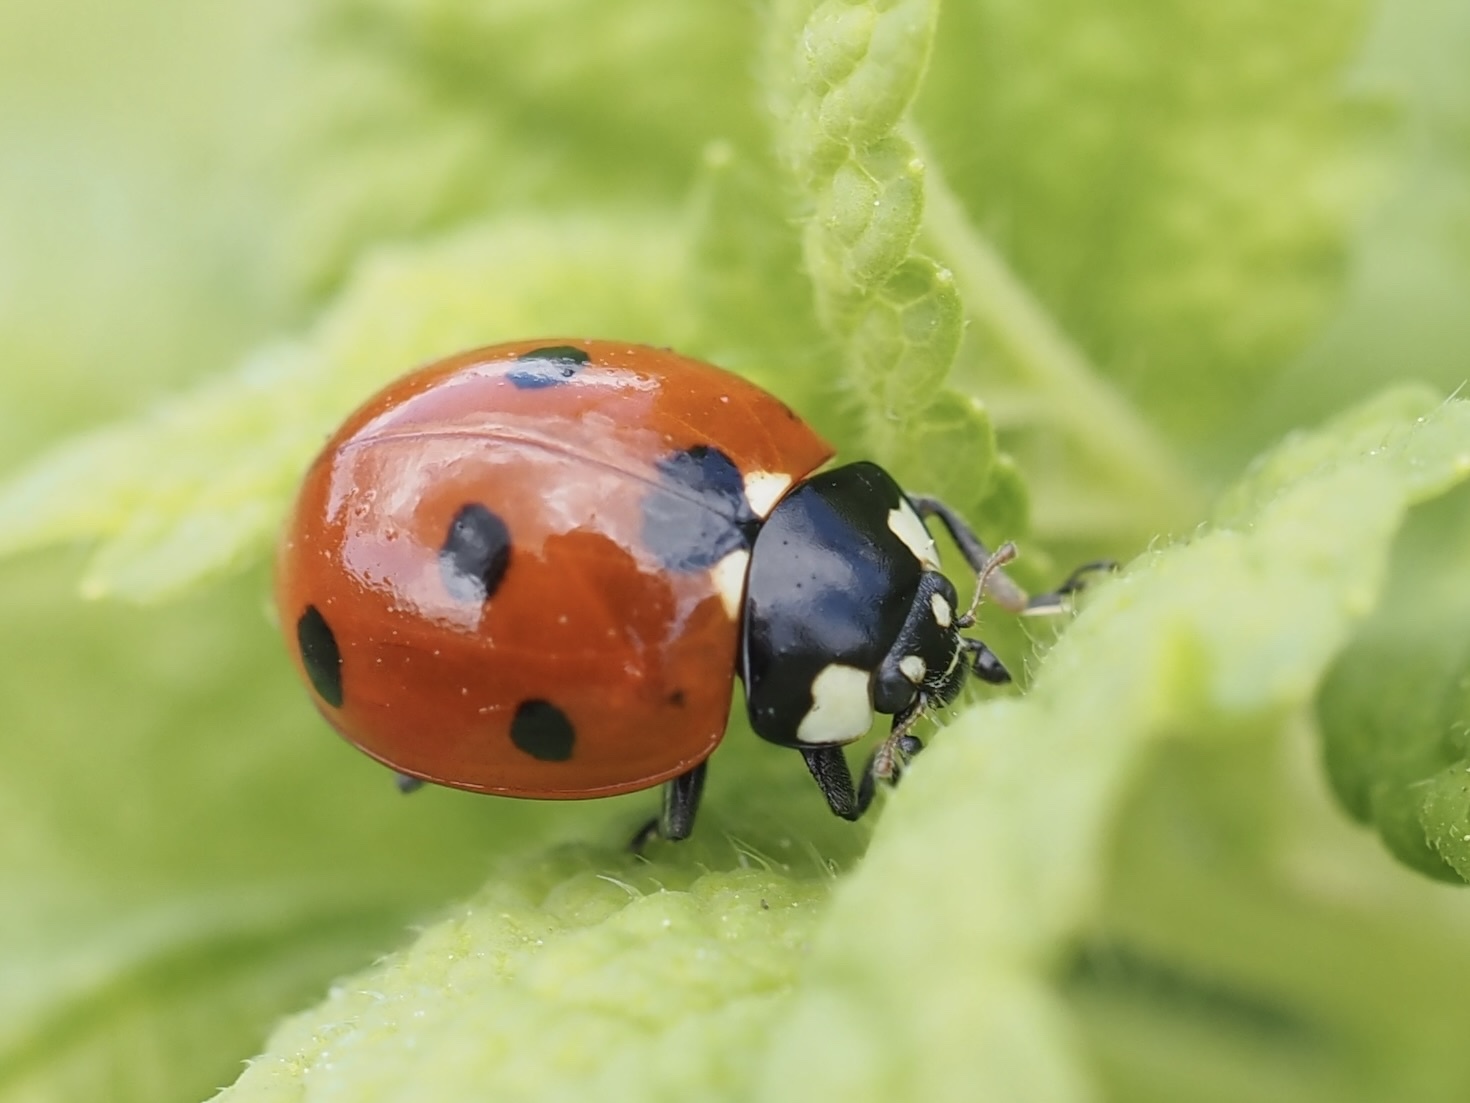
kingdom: Animalia
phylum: Arthropoda
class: Insecta
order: Coleoptera
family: Coccinellidae
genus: Coccinella
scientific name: Coccinella septempunctata
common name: Sevenspotted lady beetle
